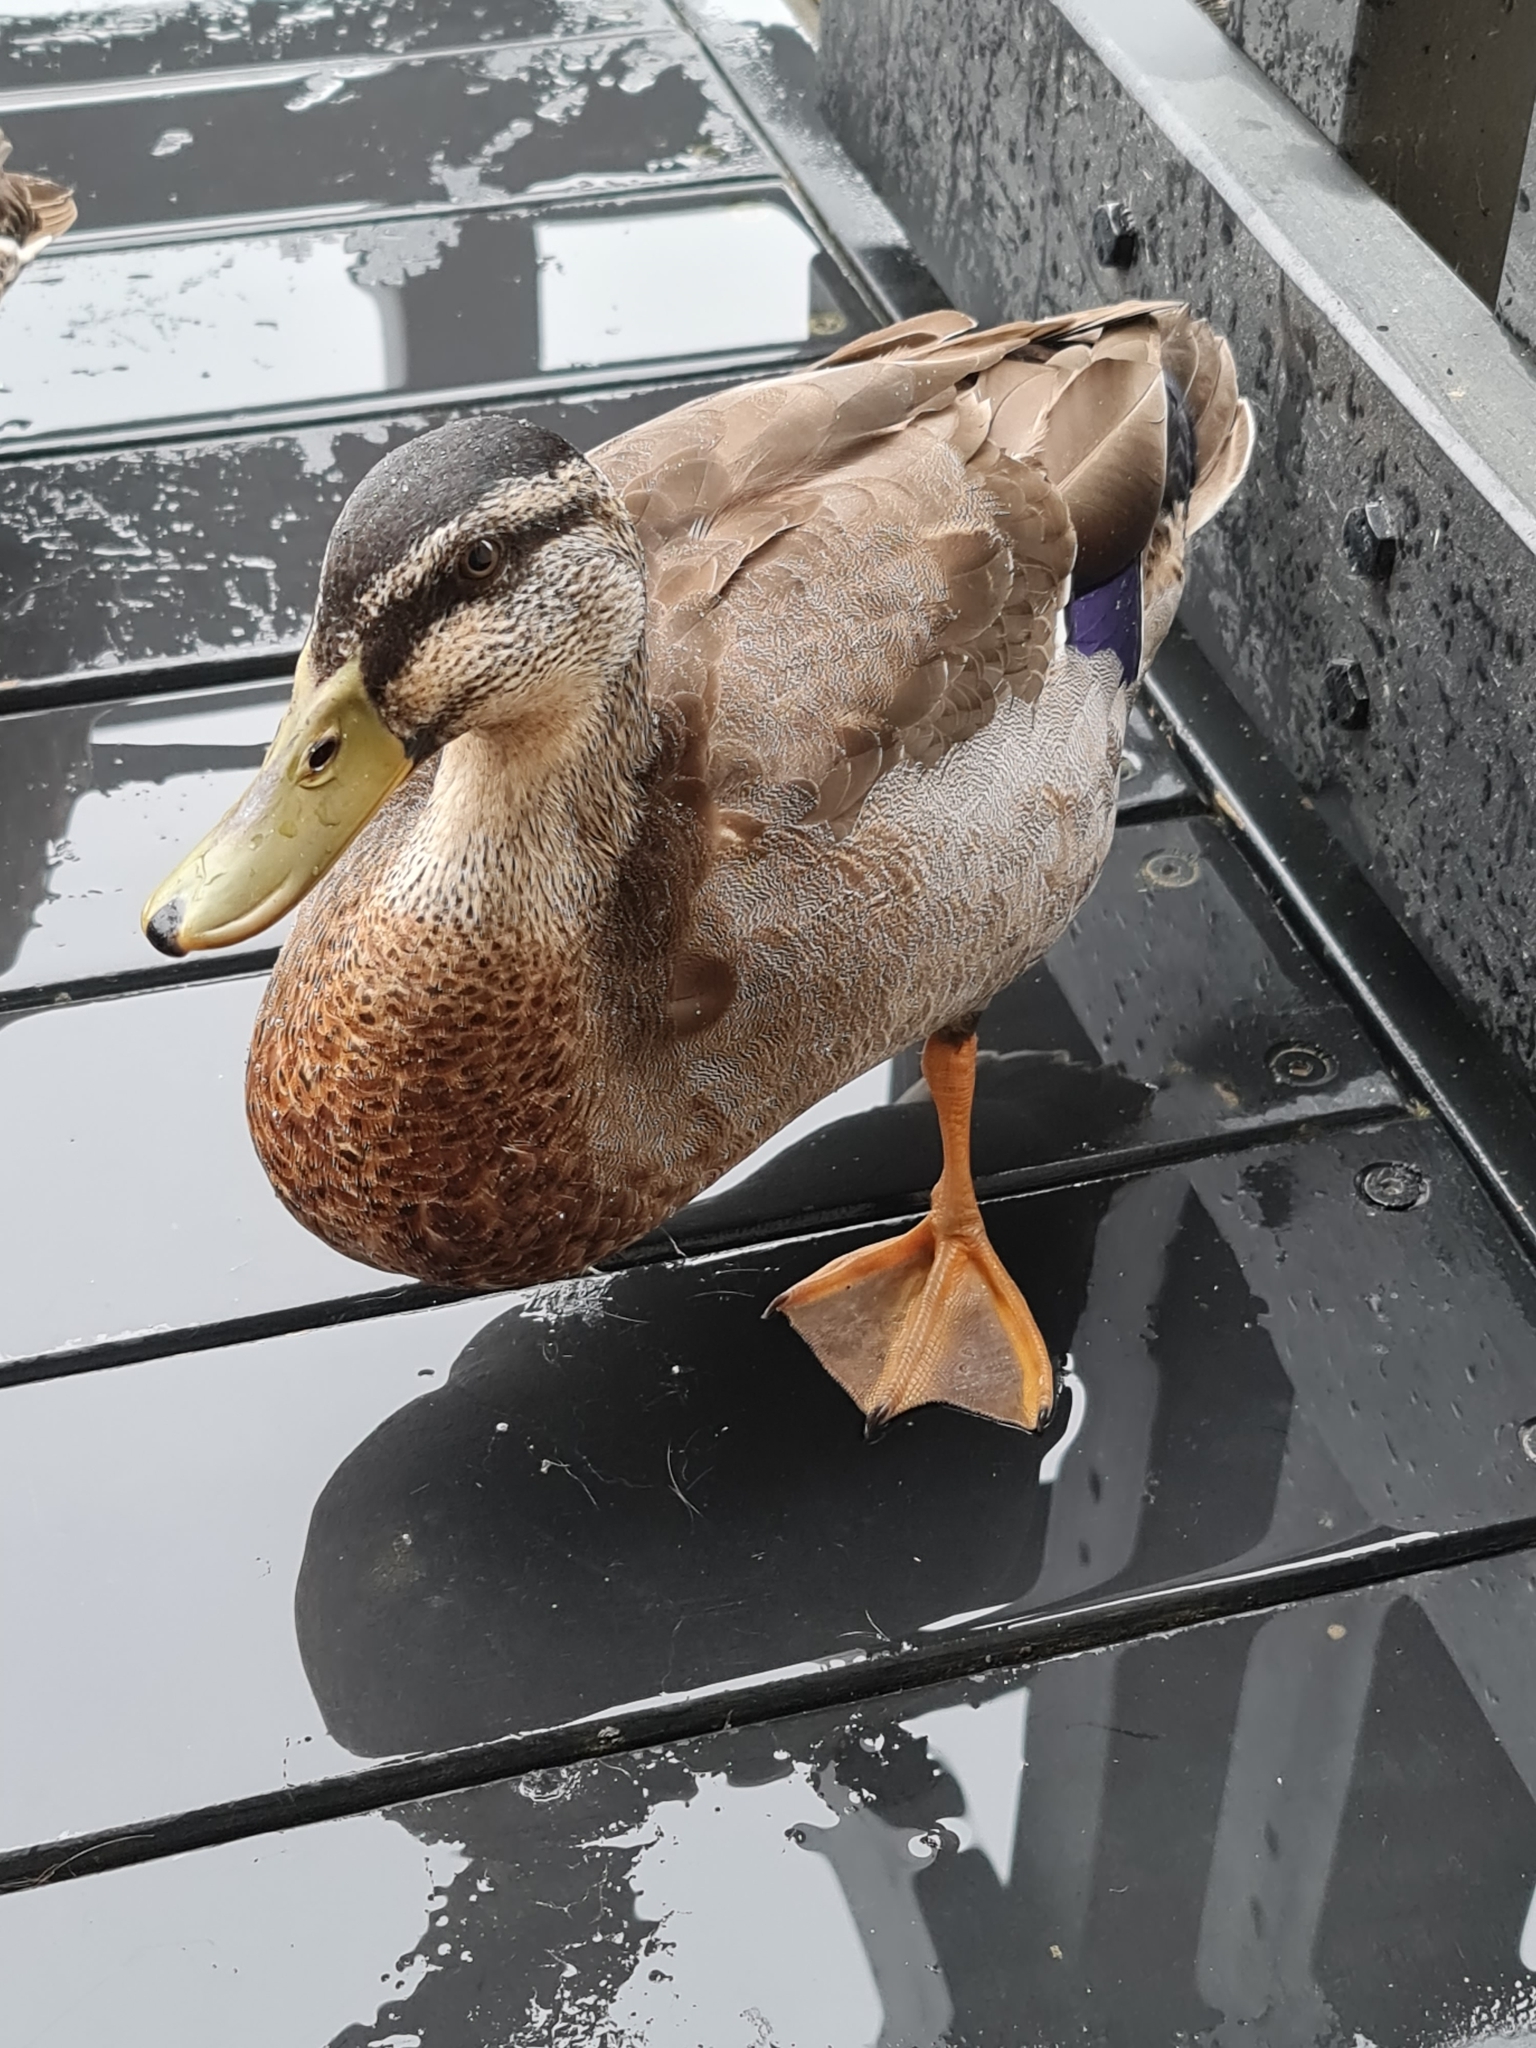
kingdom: Animalia
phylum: Chordata
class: Aves
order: Anseriformes
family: Anatidae
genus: Anas
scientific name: Anas
